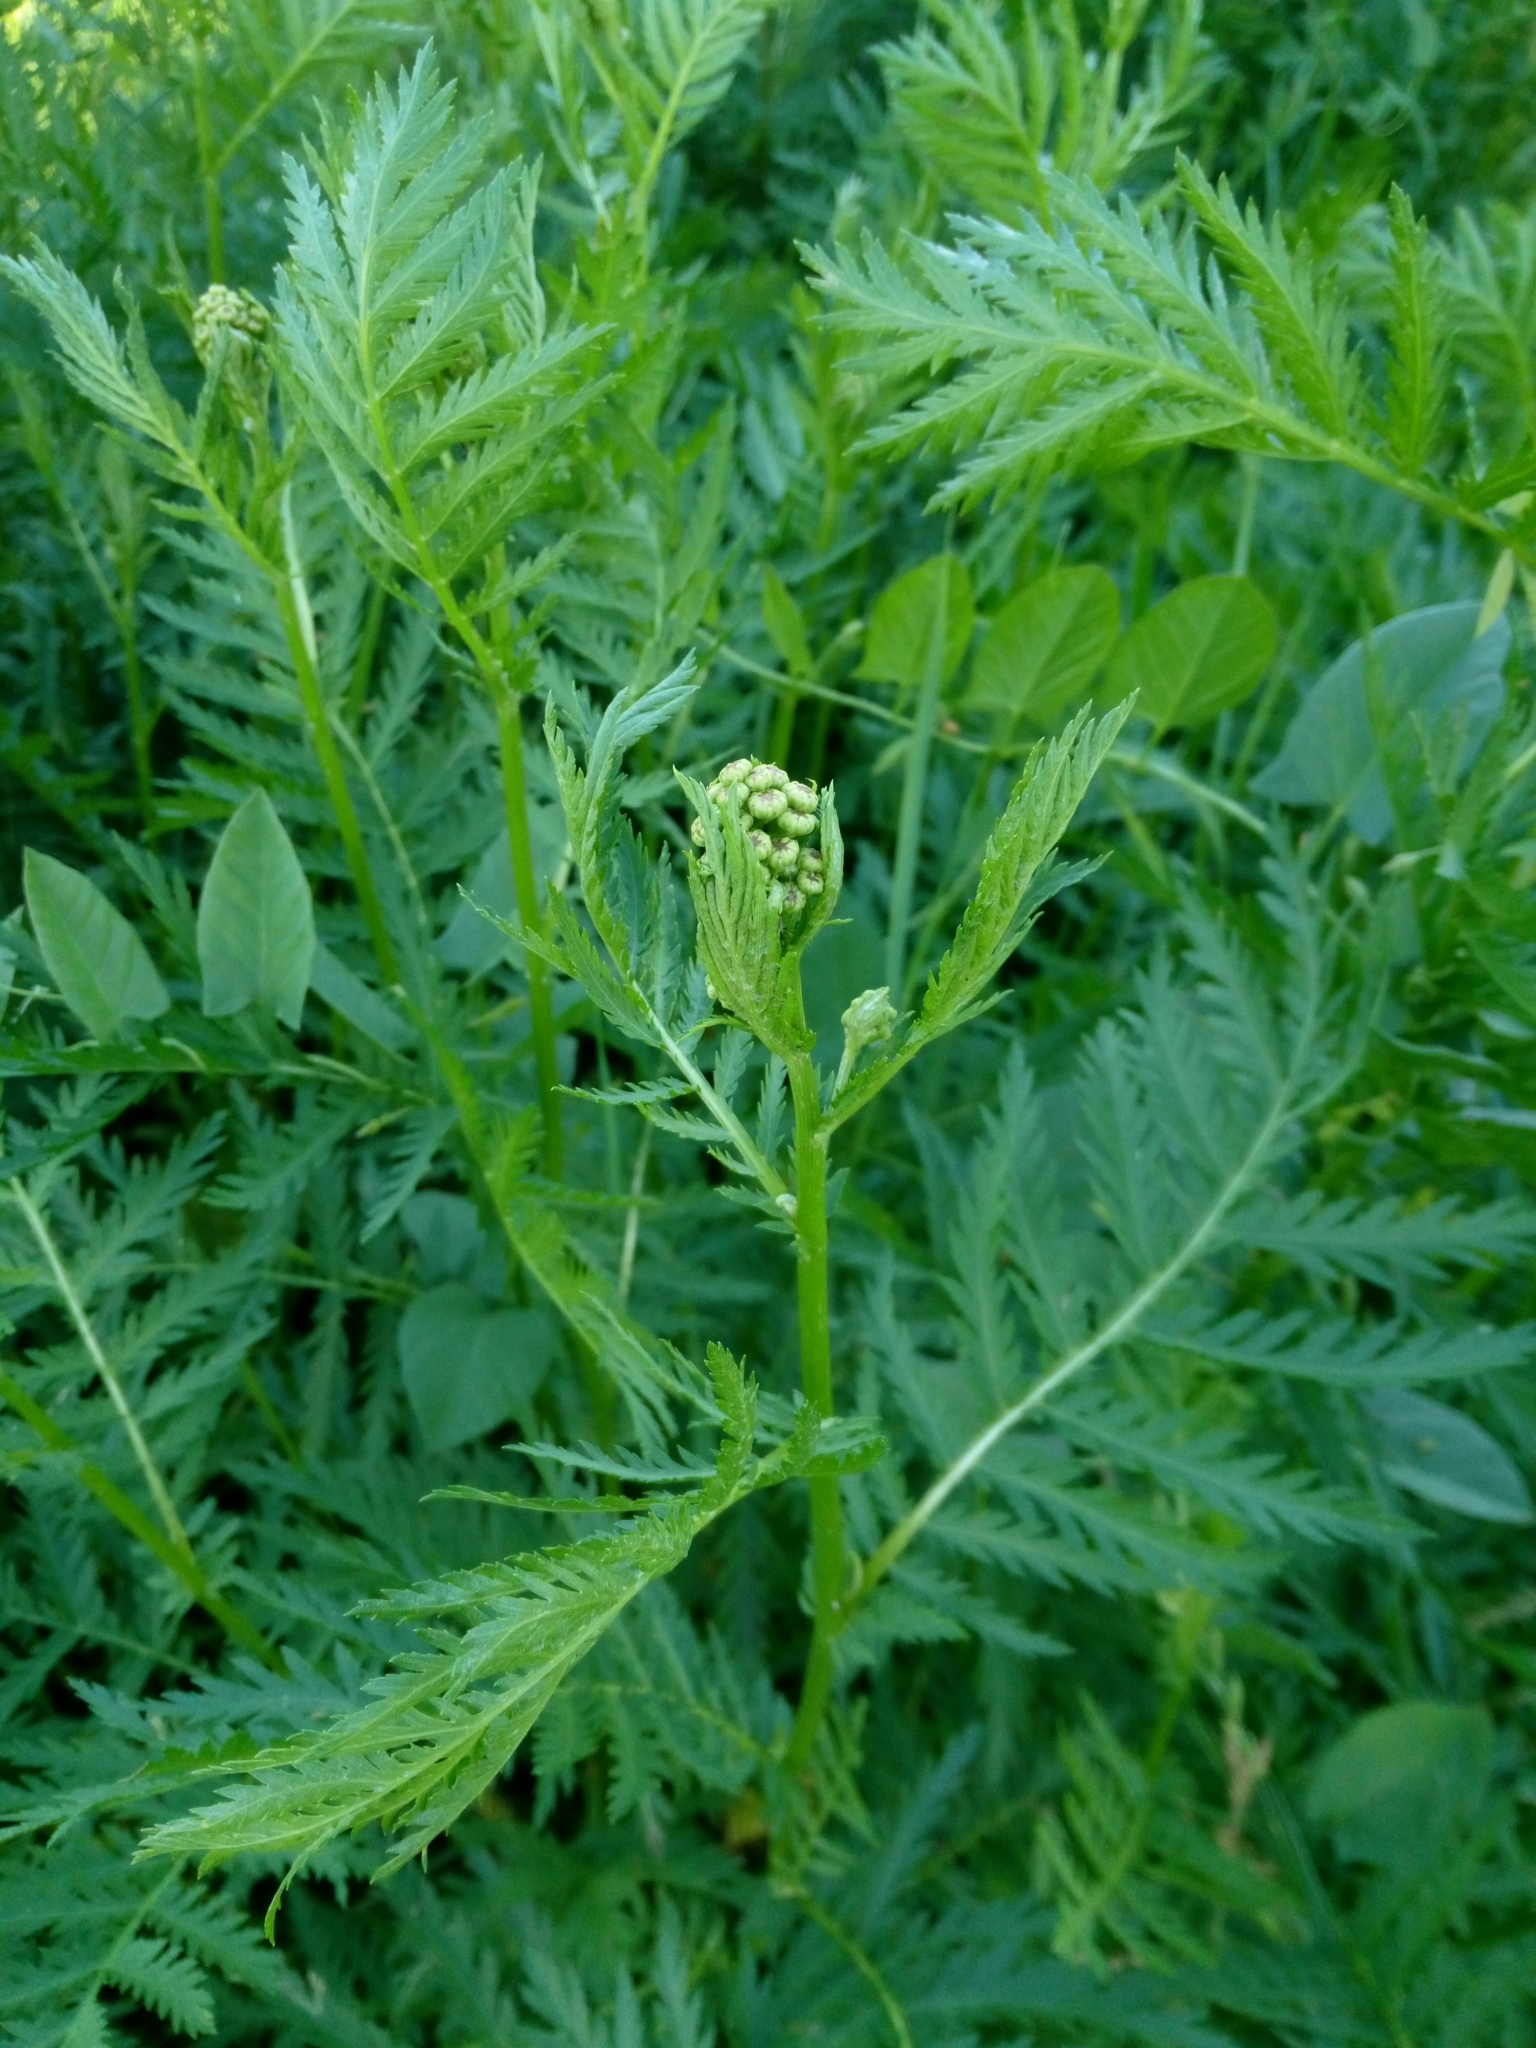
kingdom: Plantae
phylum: Tracheophyta
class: Magnoliopsida
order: Asterales
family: Asteraceae
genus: Tanacetum
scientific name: Tanacetum vulgare
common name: Common tansy
